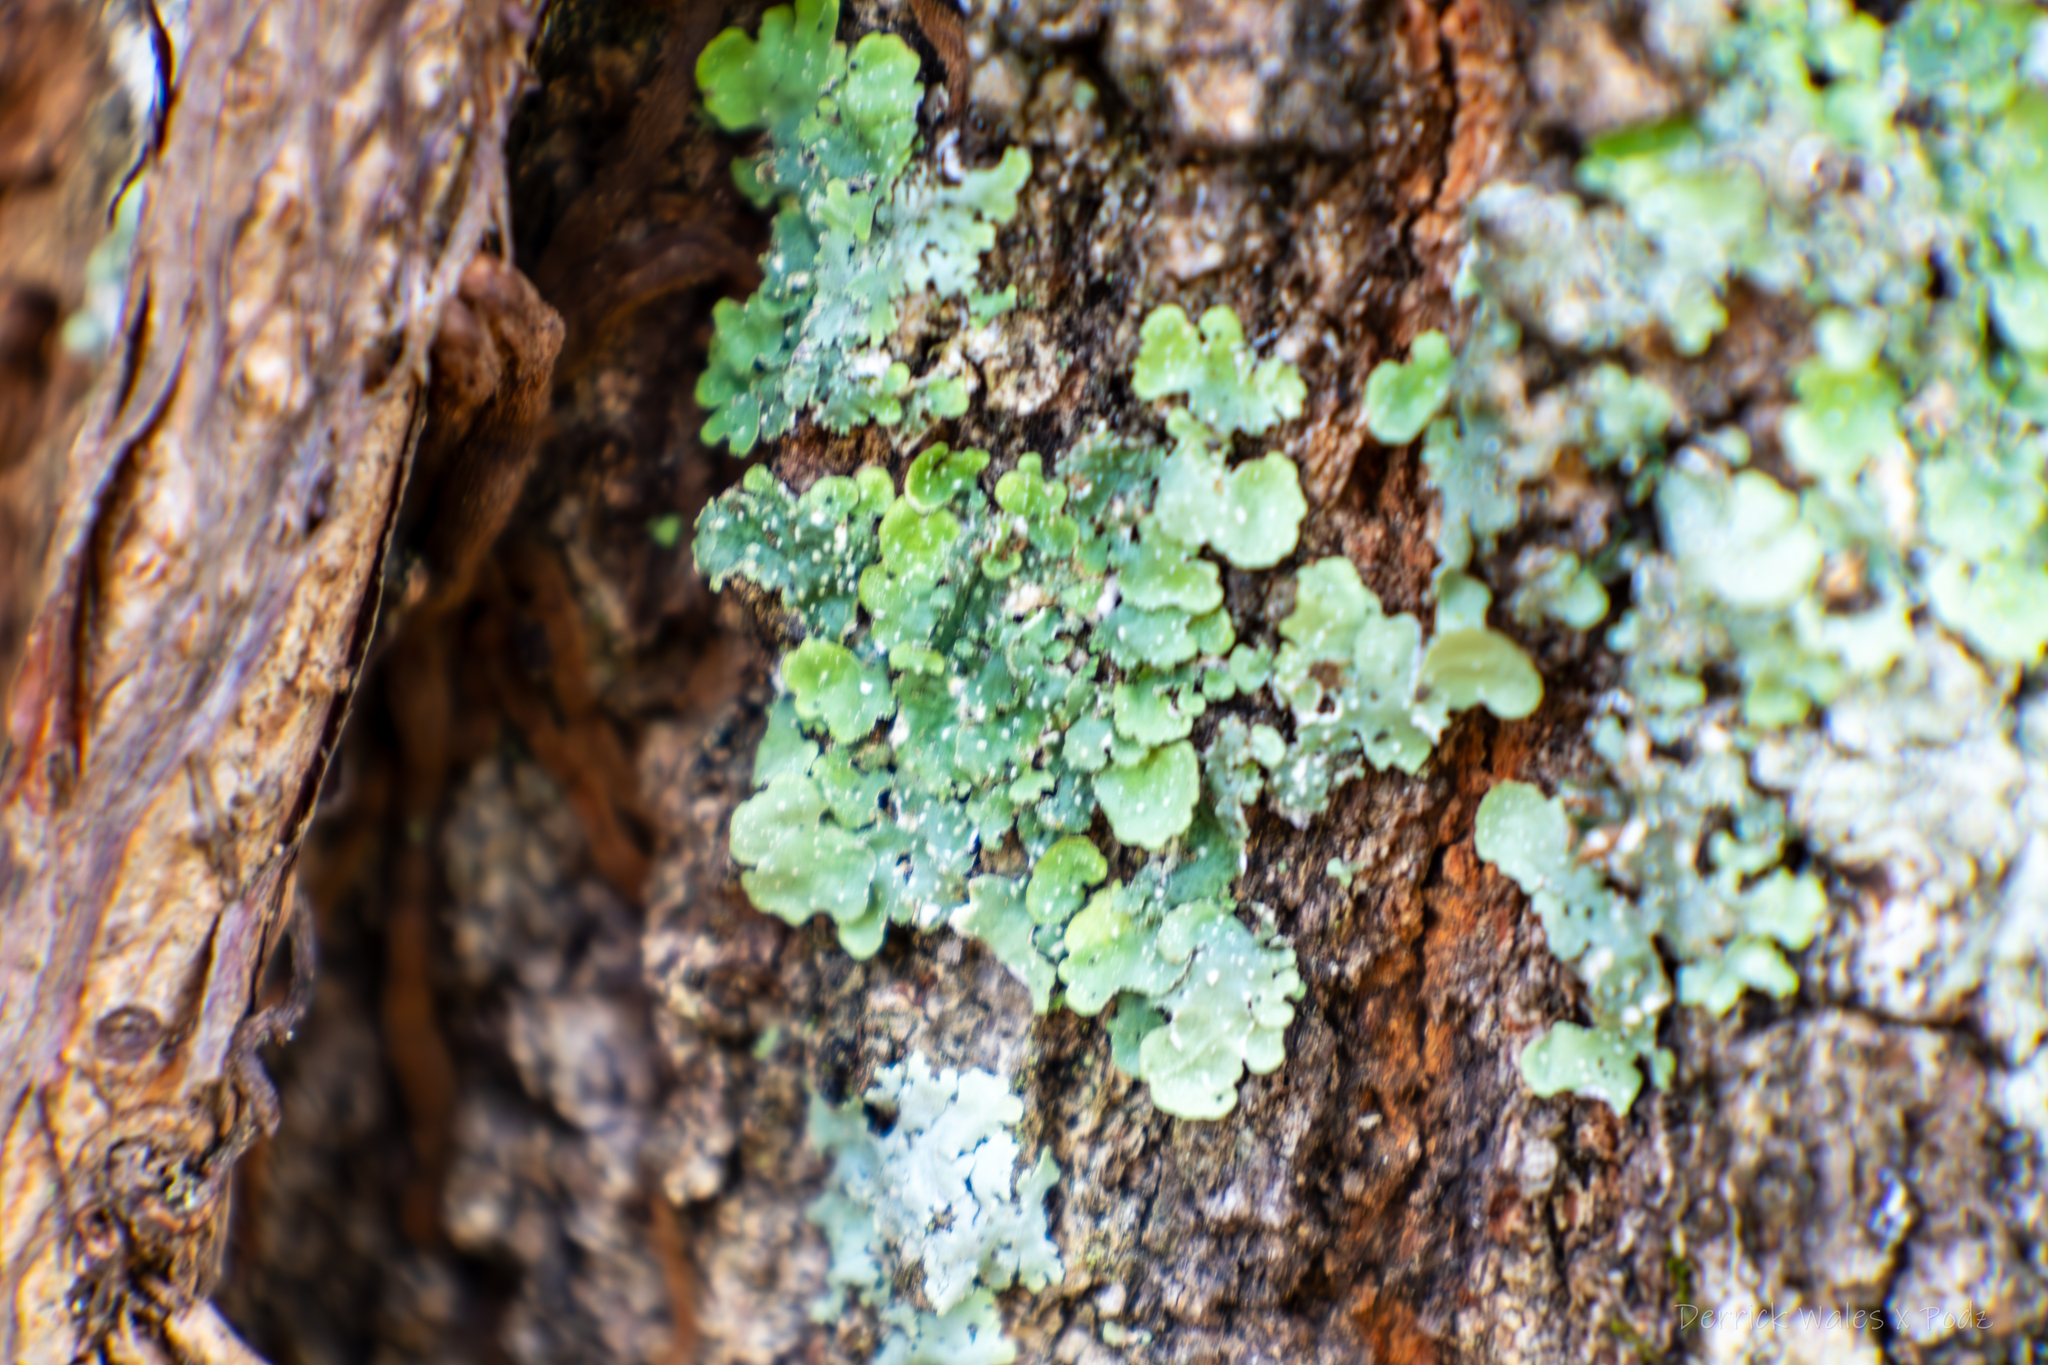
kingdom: Fungi
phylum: Ascomycota
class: Lecanoromycetes
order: Lecanorales
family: Parmeliaceae
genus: Punctelia
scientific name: Punctelia rudecta
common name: Rough speckled shield lichen
